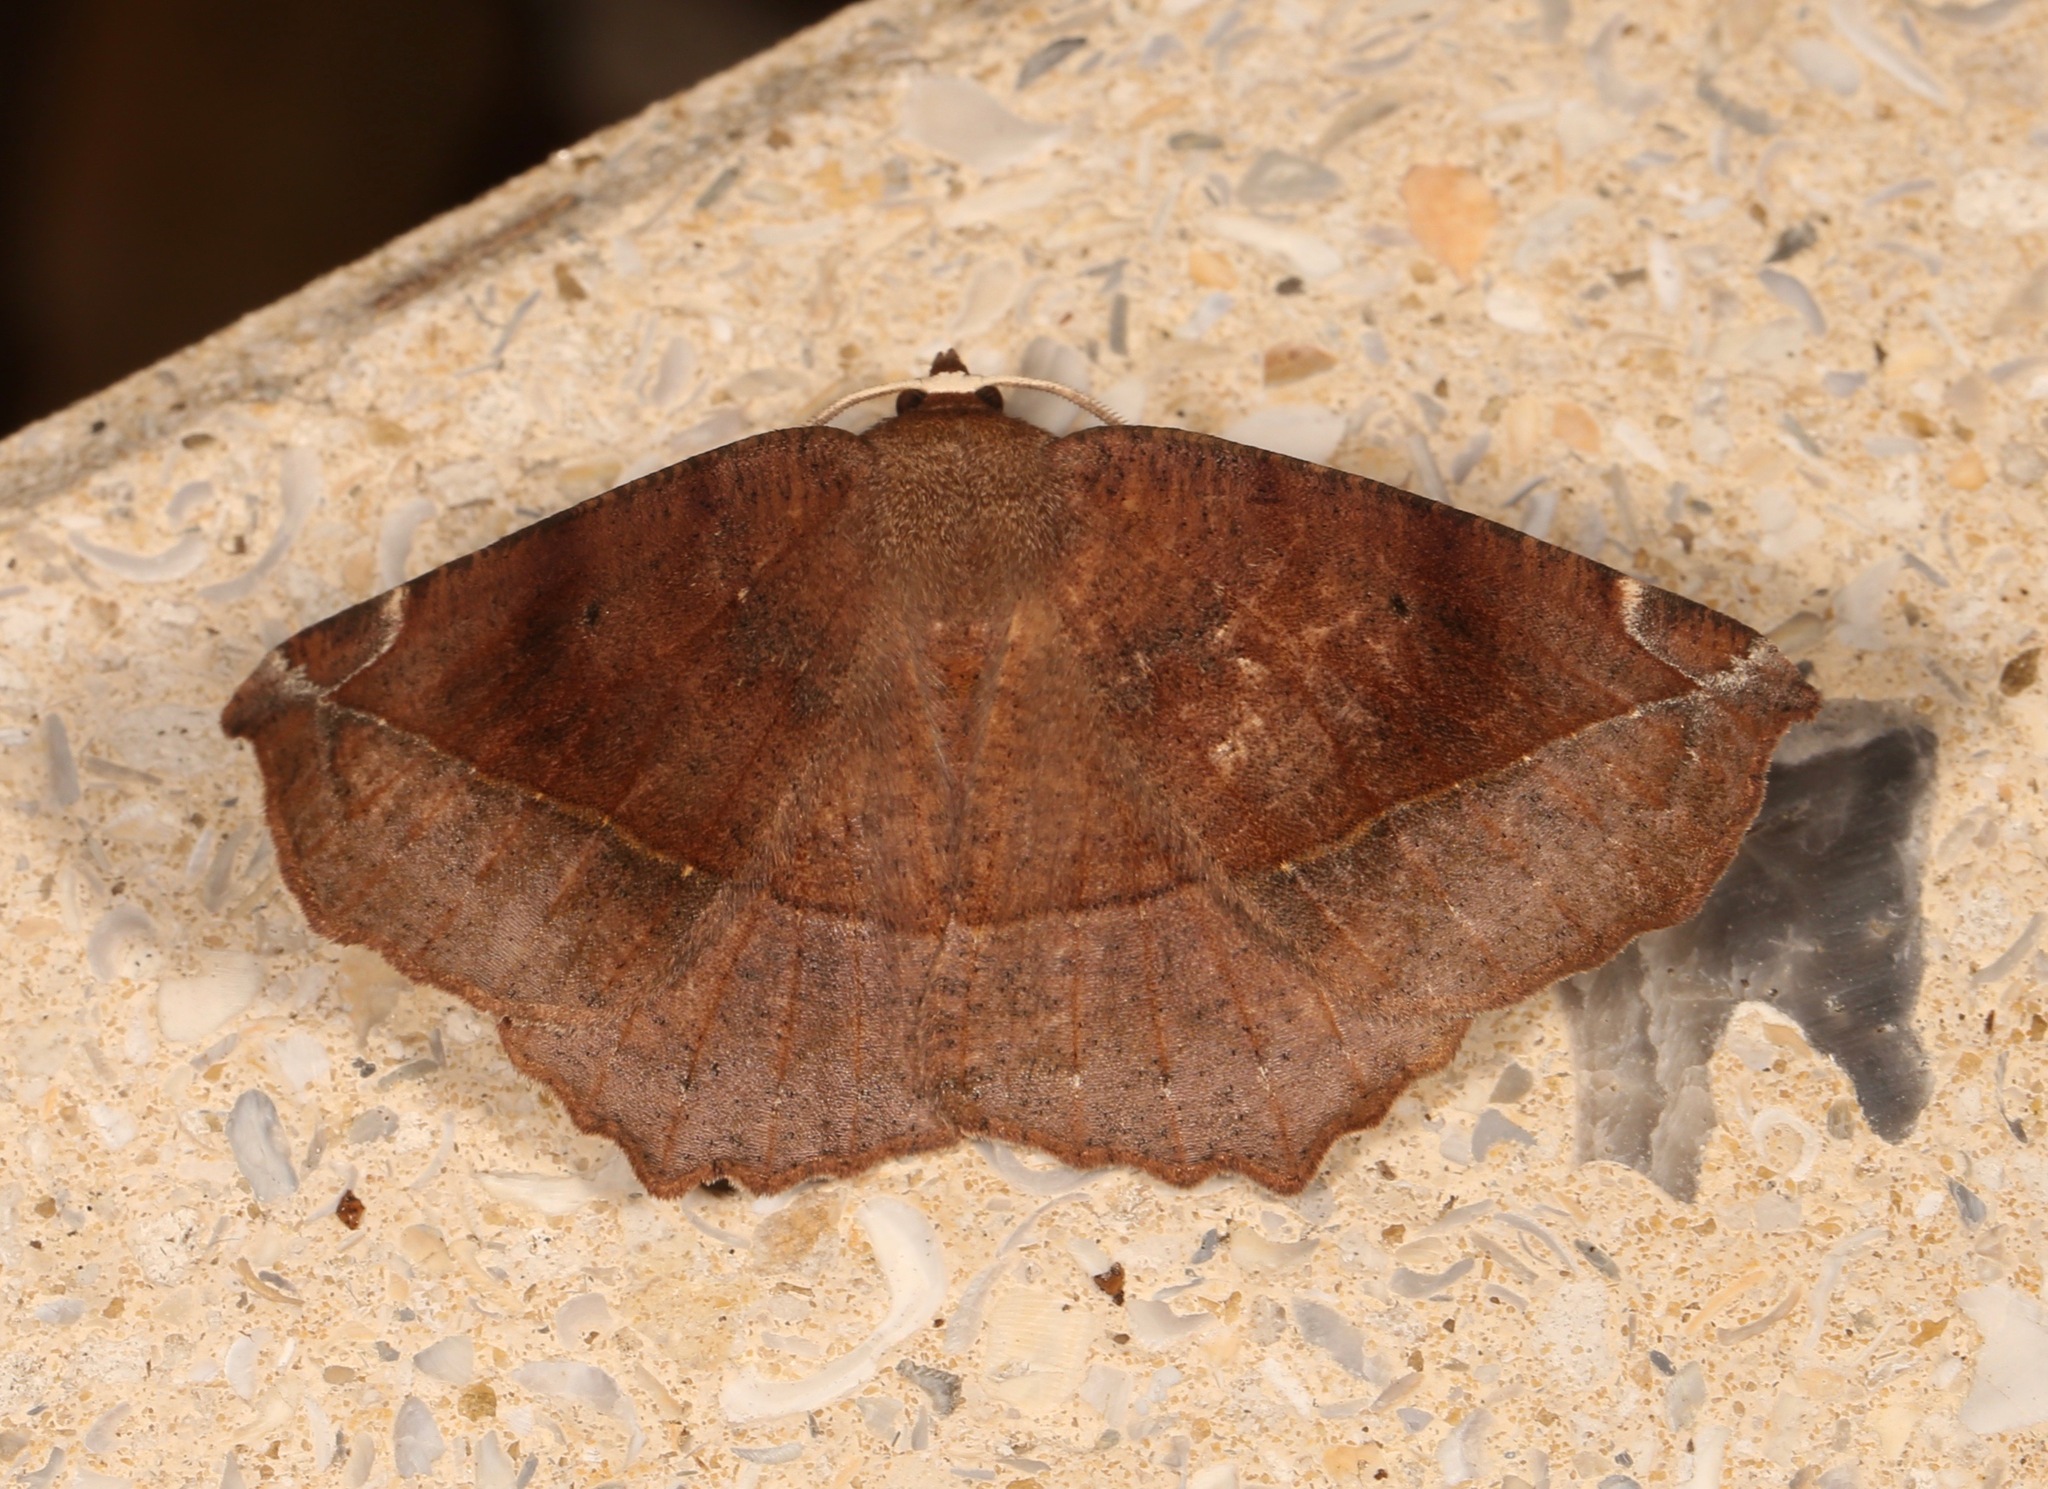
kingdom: Animalia
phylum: Arthropoda
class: Insecta
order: Lepidoptera
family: Geometridae
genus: Eutrapela
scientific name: Eutrapela clemataria
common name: Curved-toothed geometer
